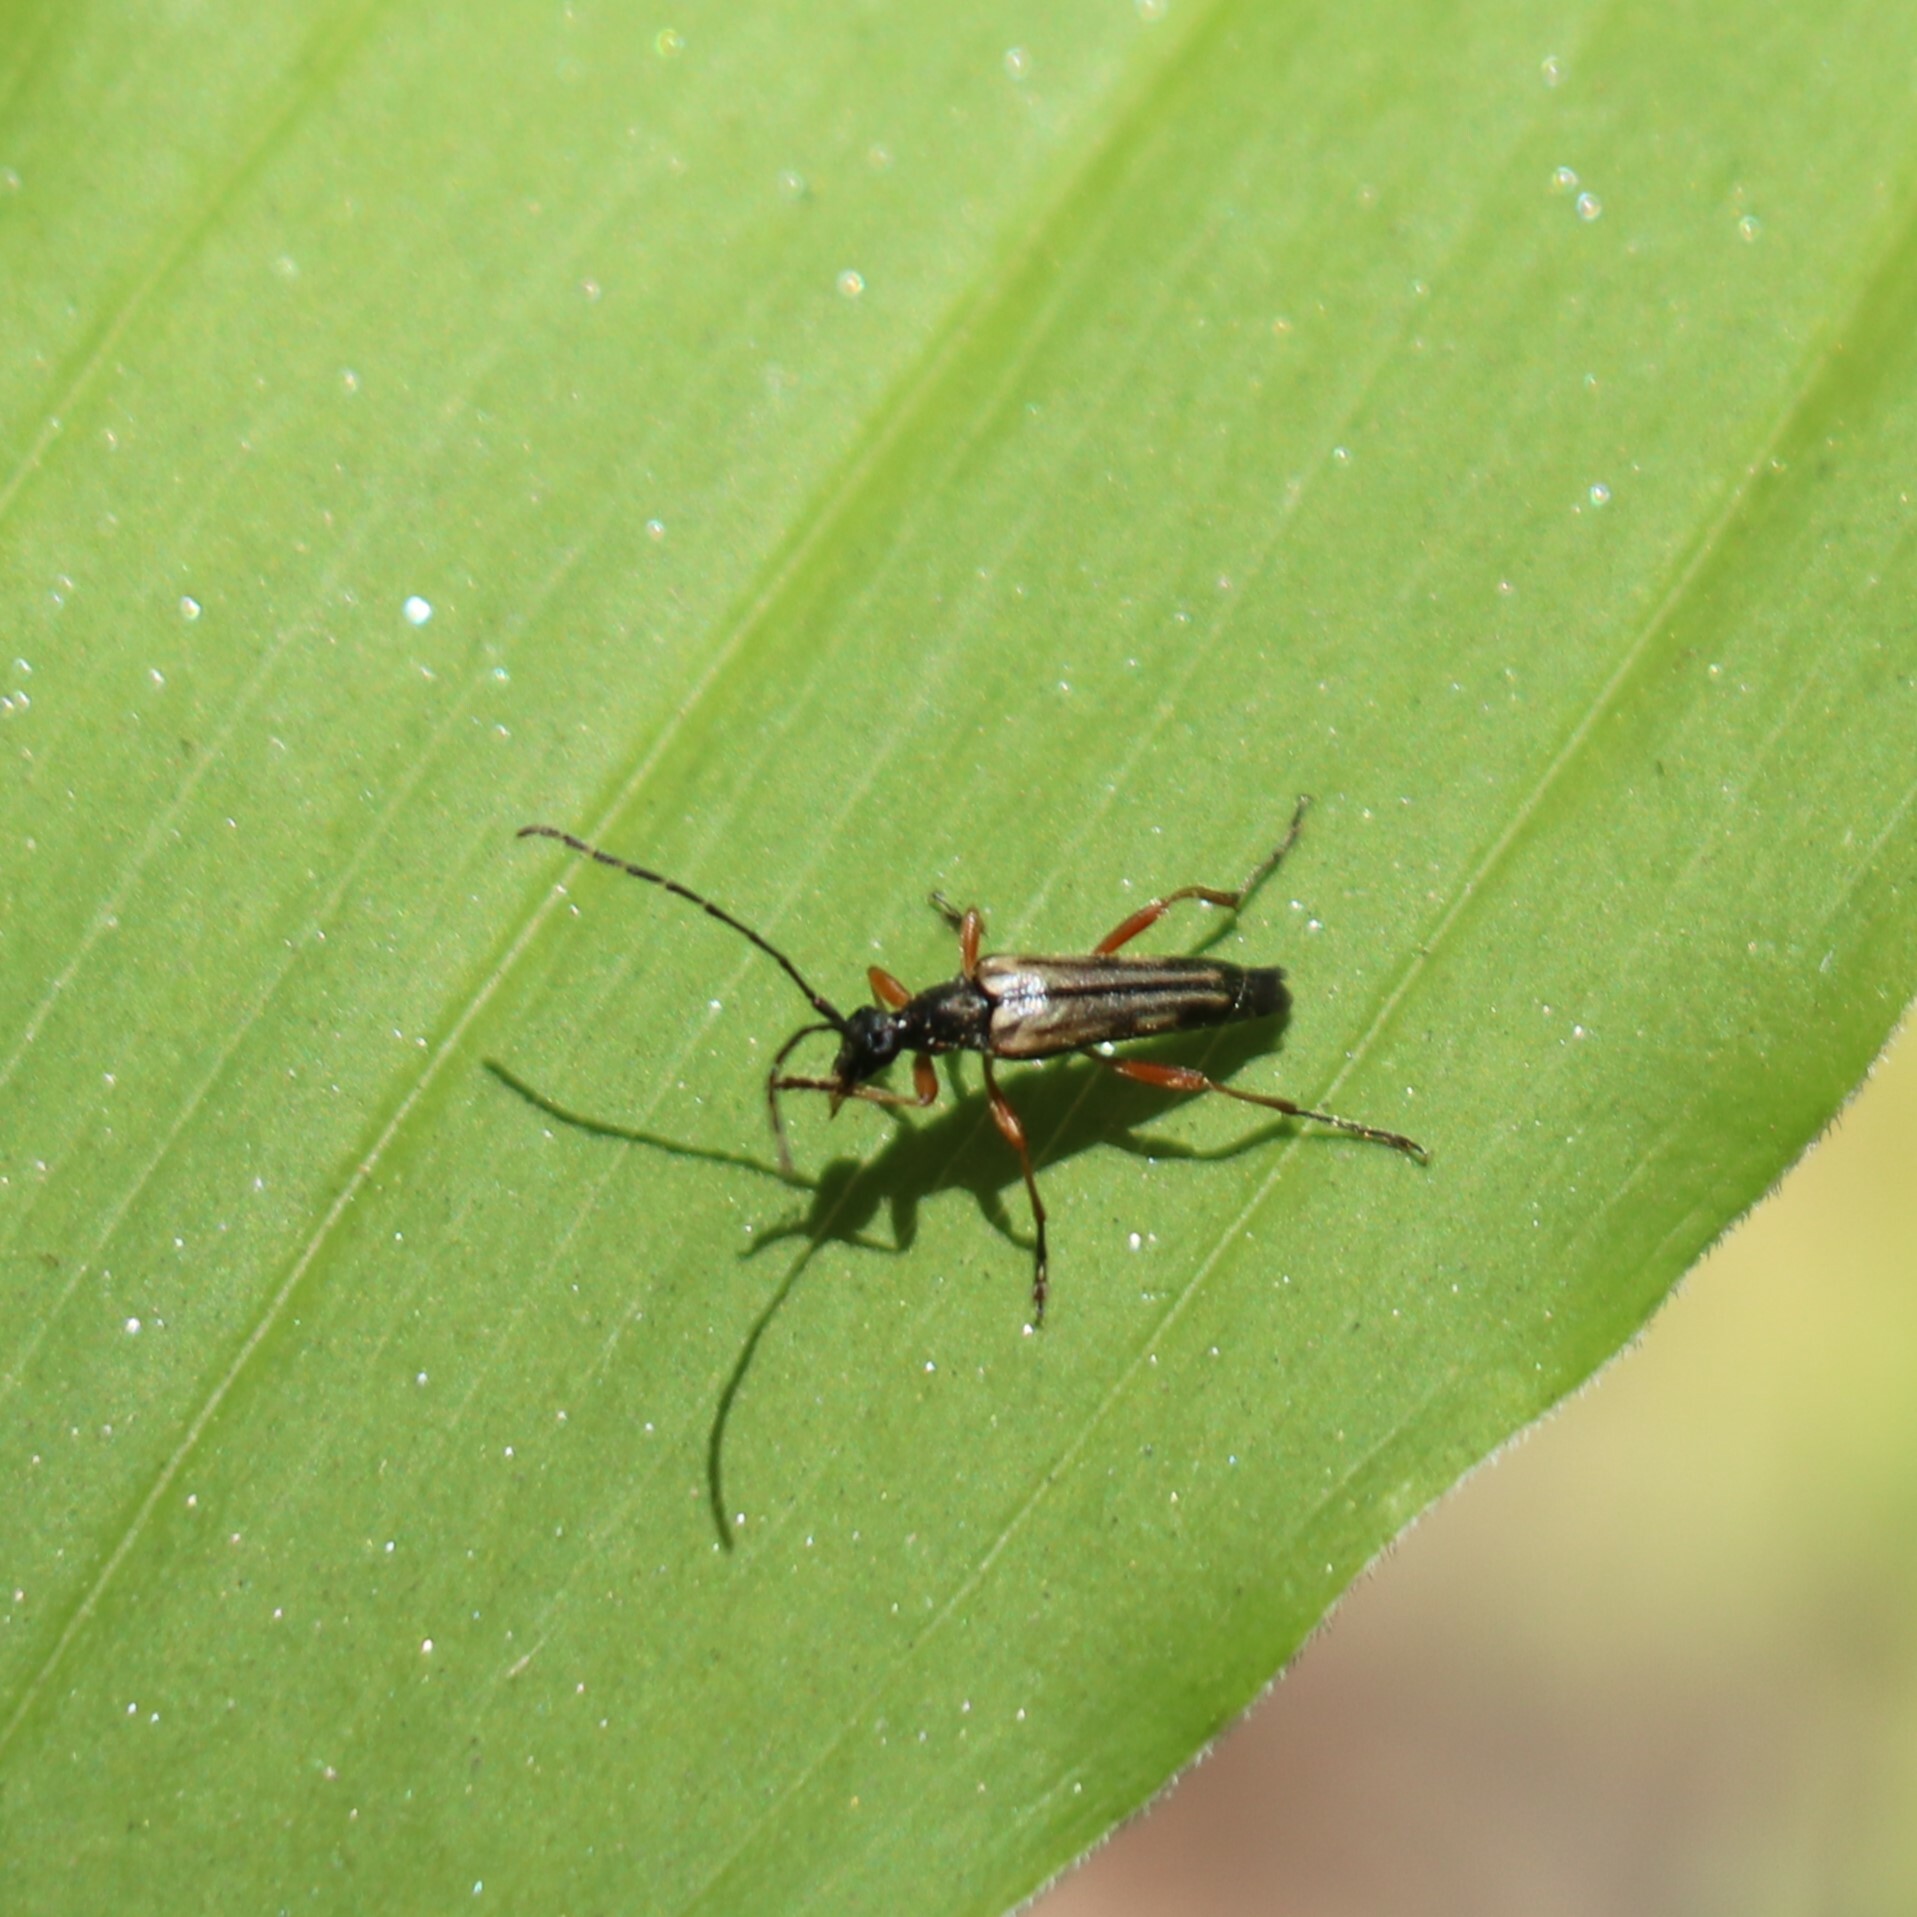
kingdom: Animalia
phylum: Arthropoda
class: Insecta
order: Coleoptera
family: Cerambycidae
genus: Analeptura
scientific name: Analeptura lineola
